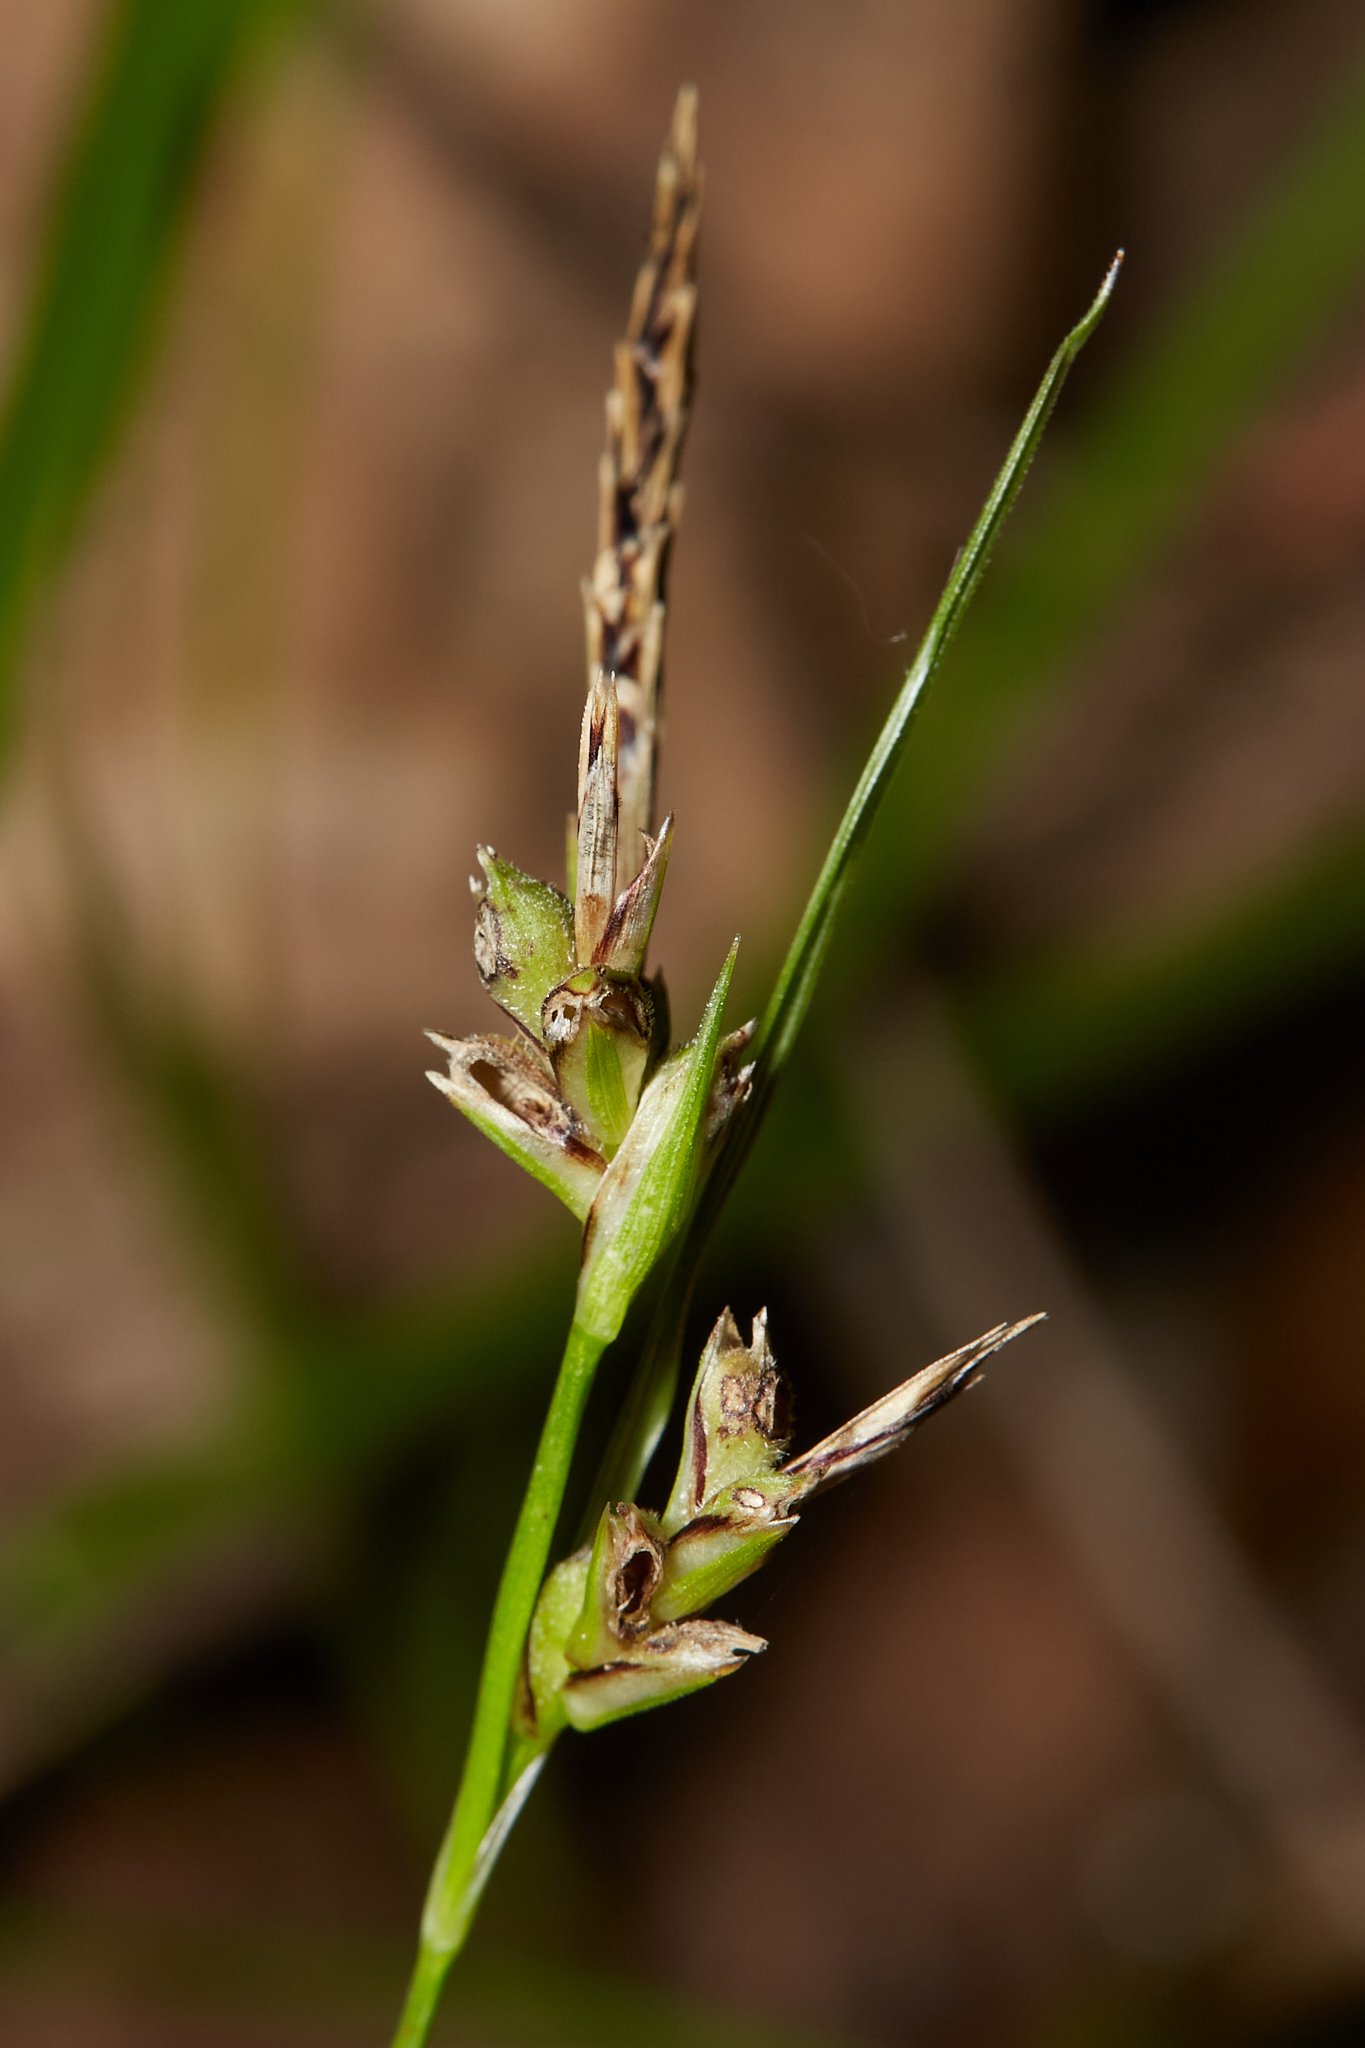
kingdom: Plantae
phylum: Tracheophyta
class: Liliopsida
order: Poales
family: Cyperaceae
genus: Carex
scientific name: Carex globosa
